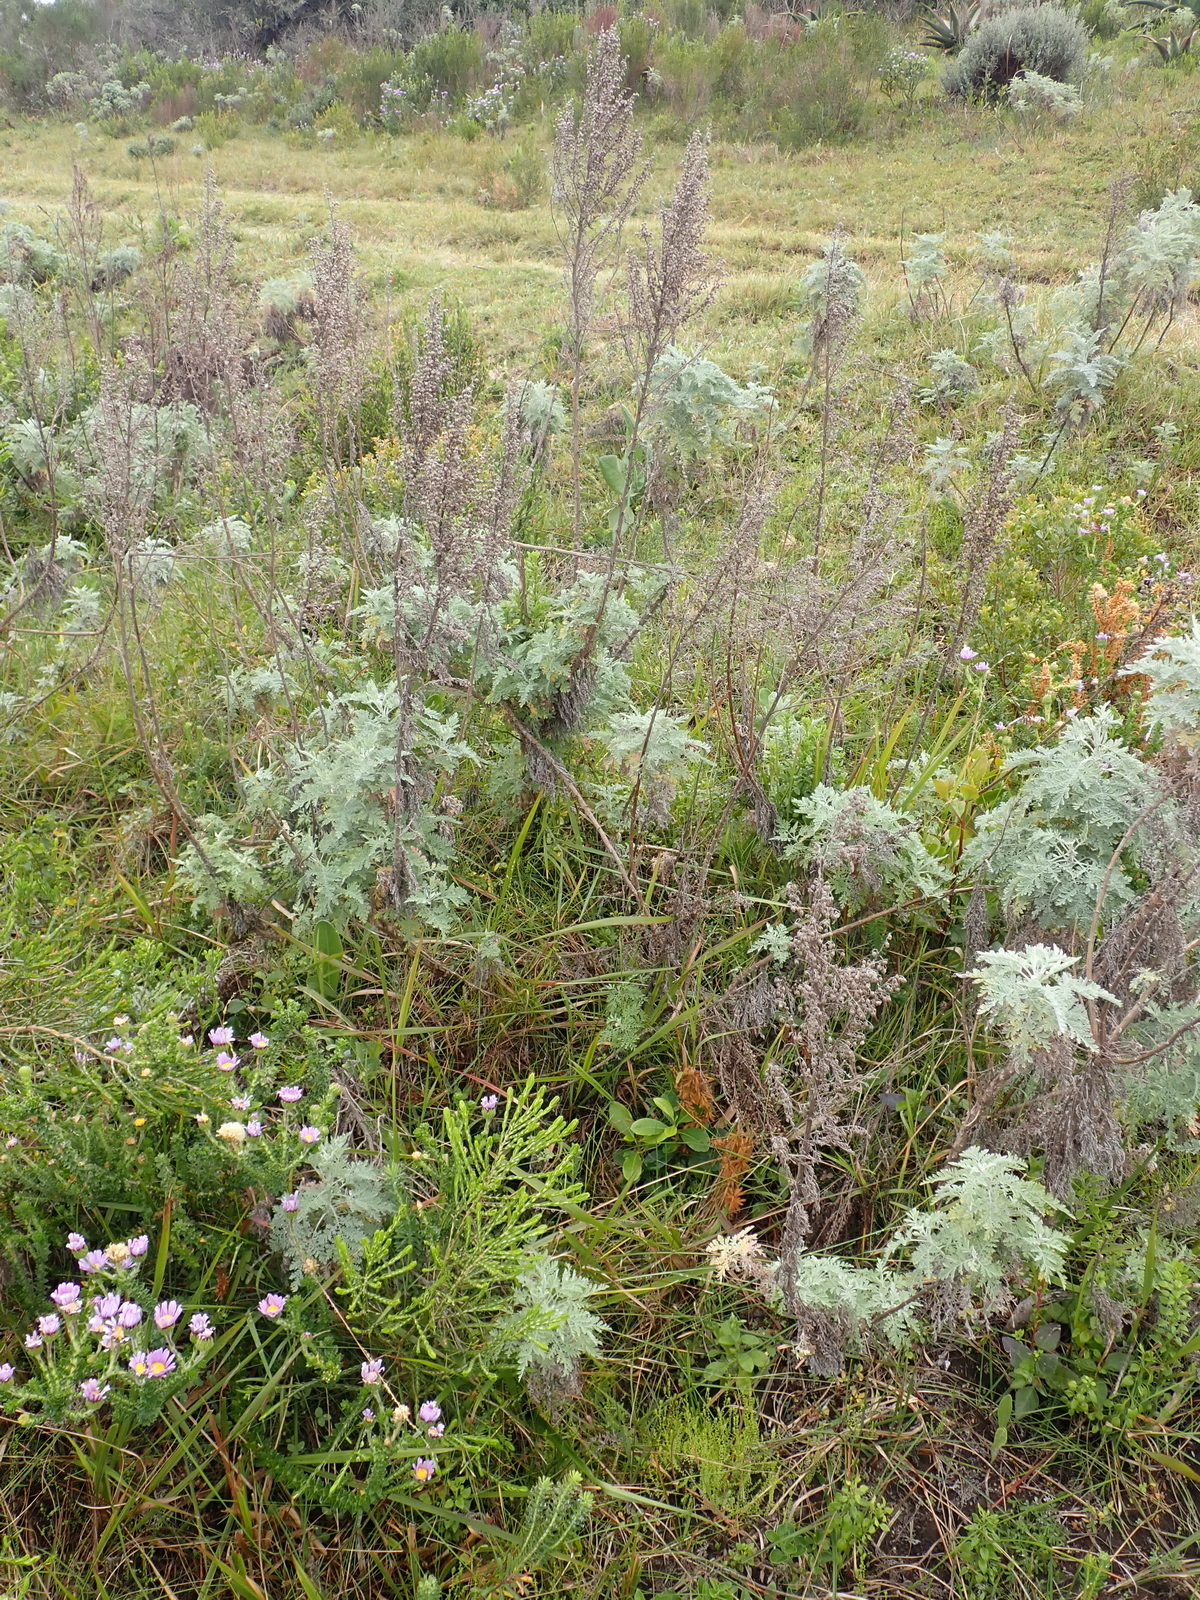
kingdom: Plantae
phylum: Tracheophyta
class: Magnoliopsida
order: Asterales
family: Asteraceae
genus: Artemisia
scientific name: Artemisia afra
